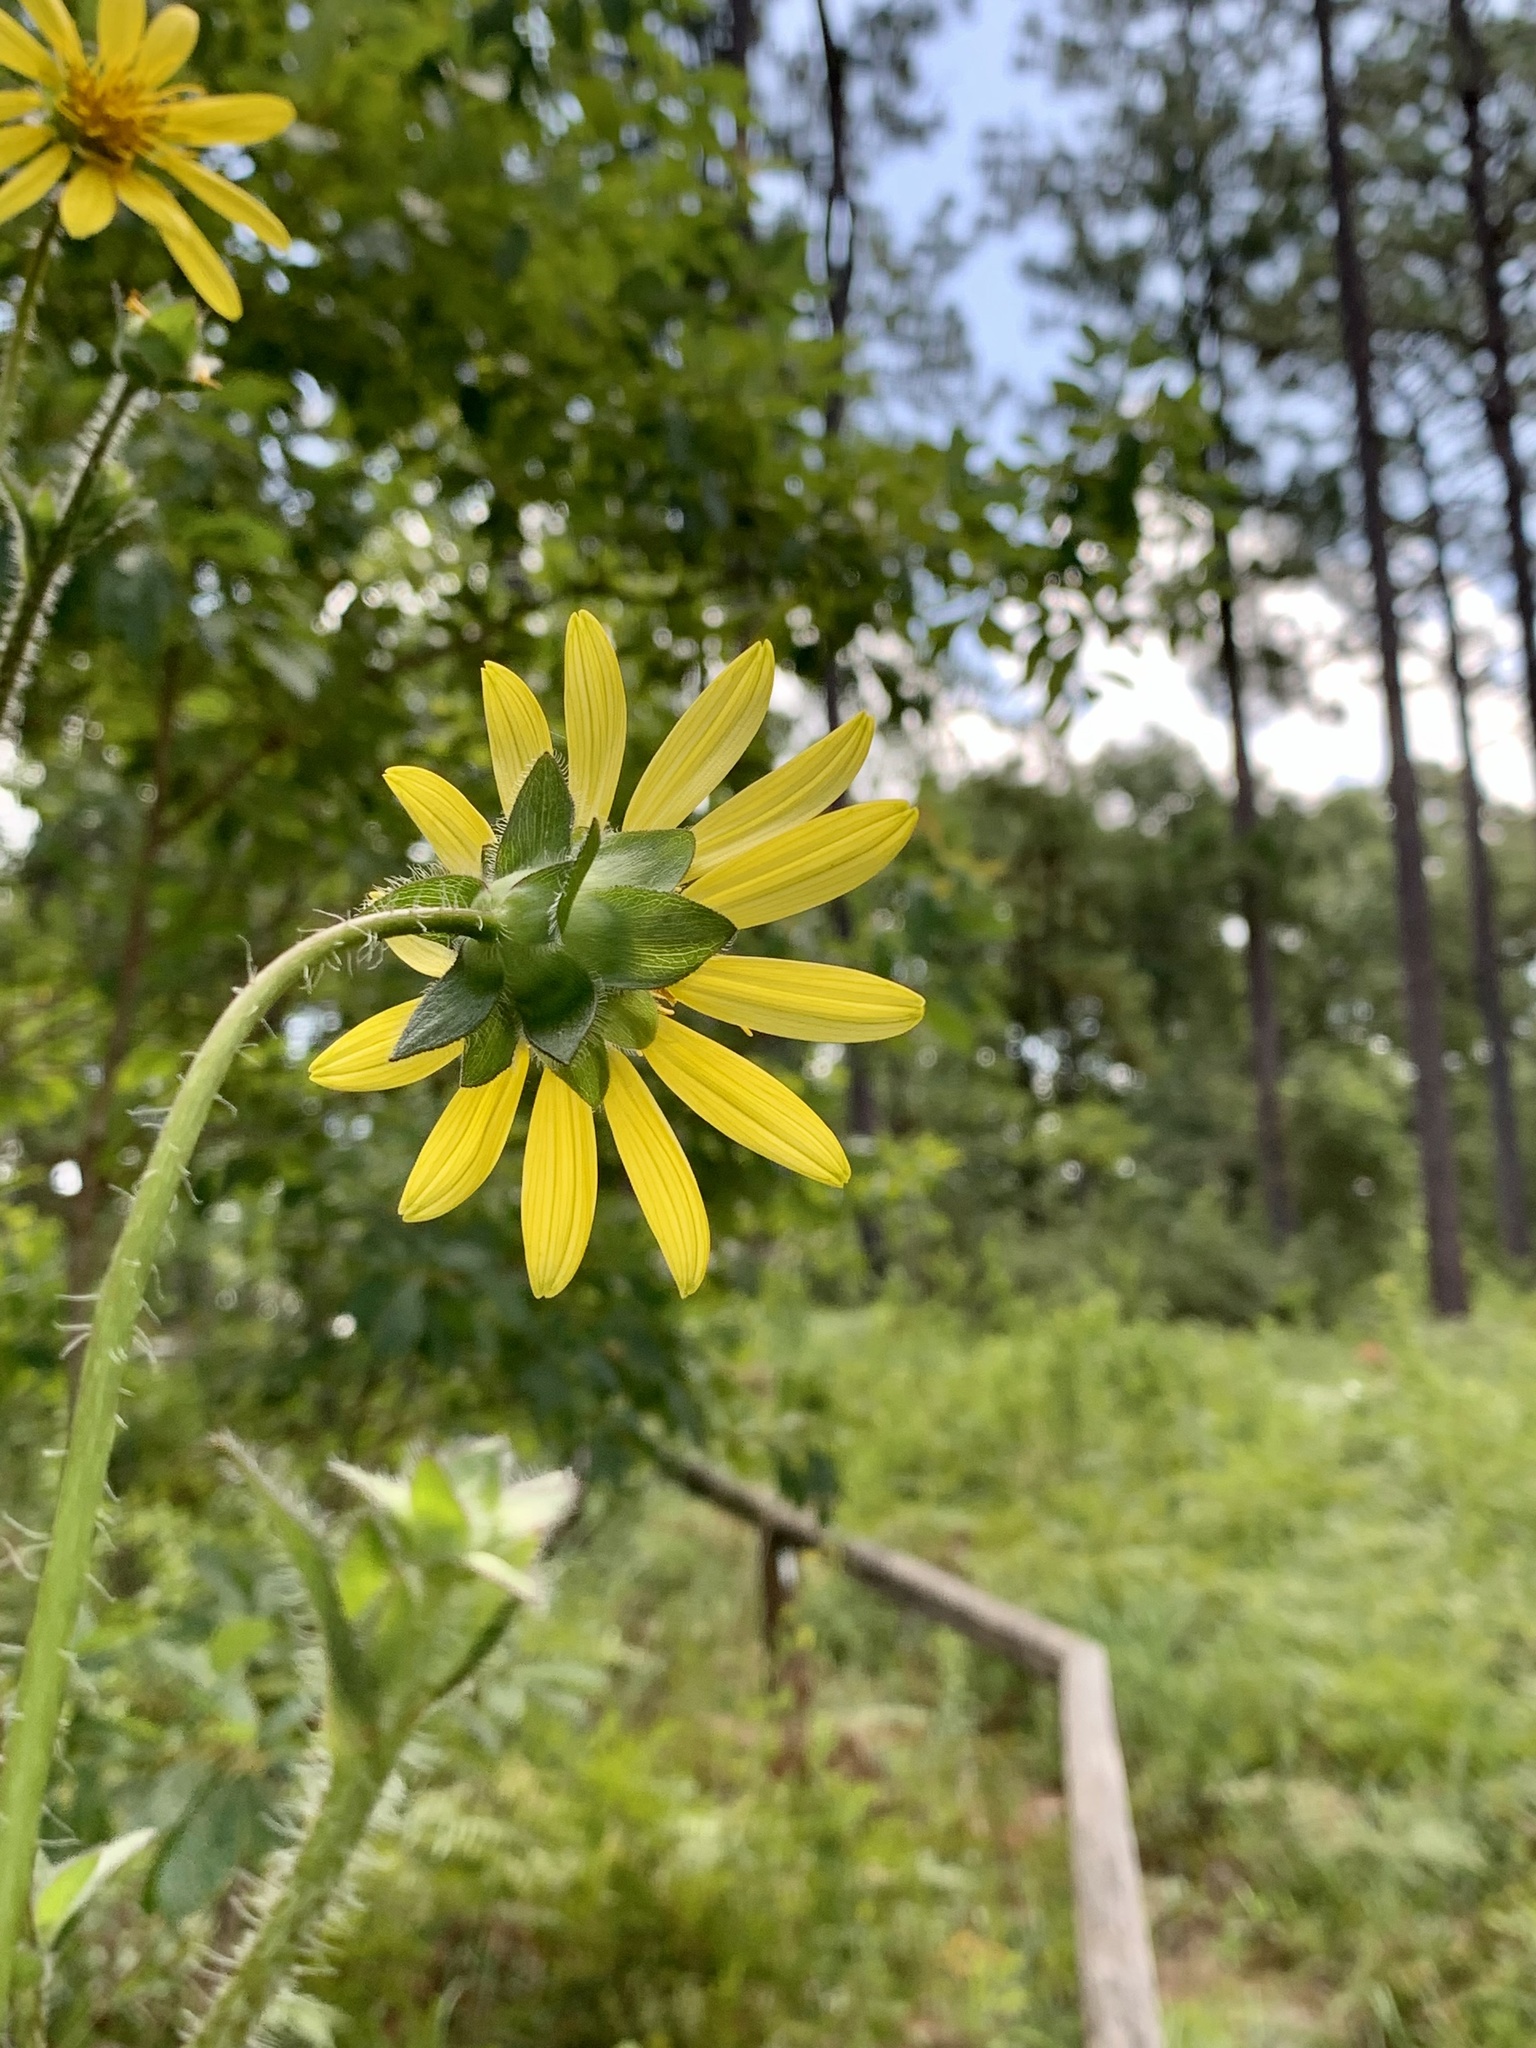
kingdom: Plantae
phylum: Tracheophyta
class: Magnoliopsida
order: Asterales
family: Asteraceae
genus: Silphium
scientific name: Silphium radula
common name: Roughleaf rosinweed
